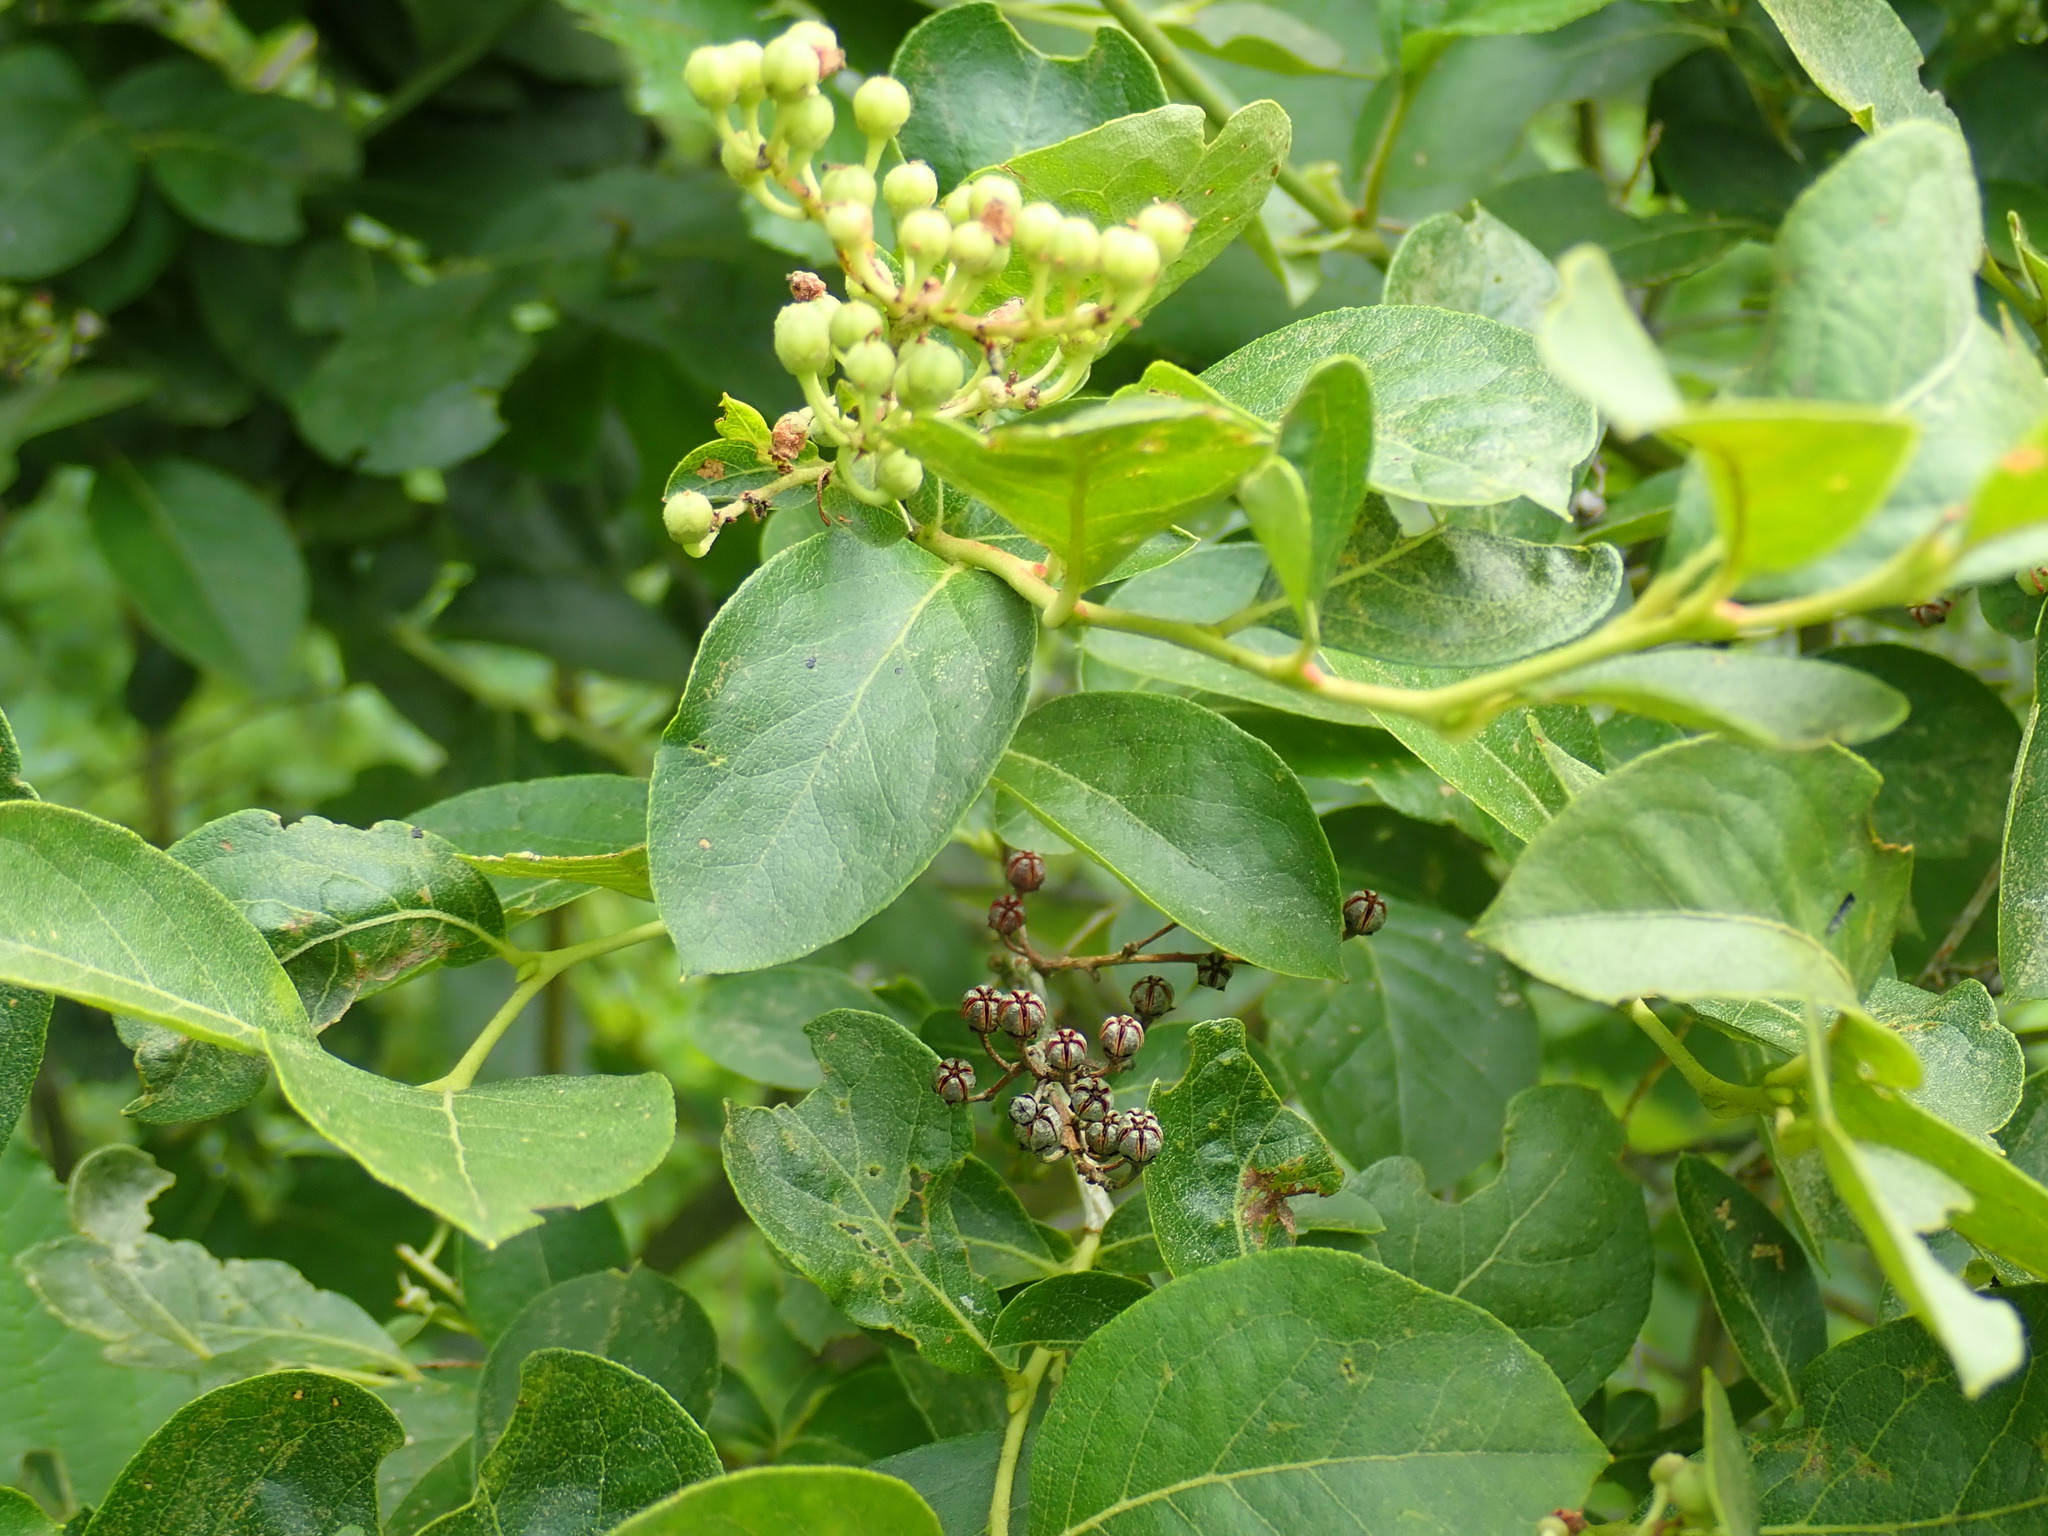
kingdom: Plantae
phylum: Tracheophyta
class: Magnoliopsida
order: Ericales
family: Ericaceae
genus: Lyonia
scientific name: Lyonia ligustrina
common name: Maleberry
